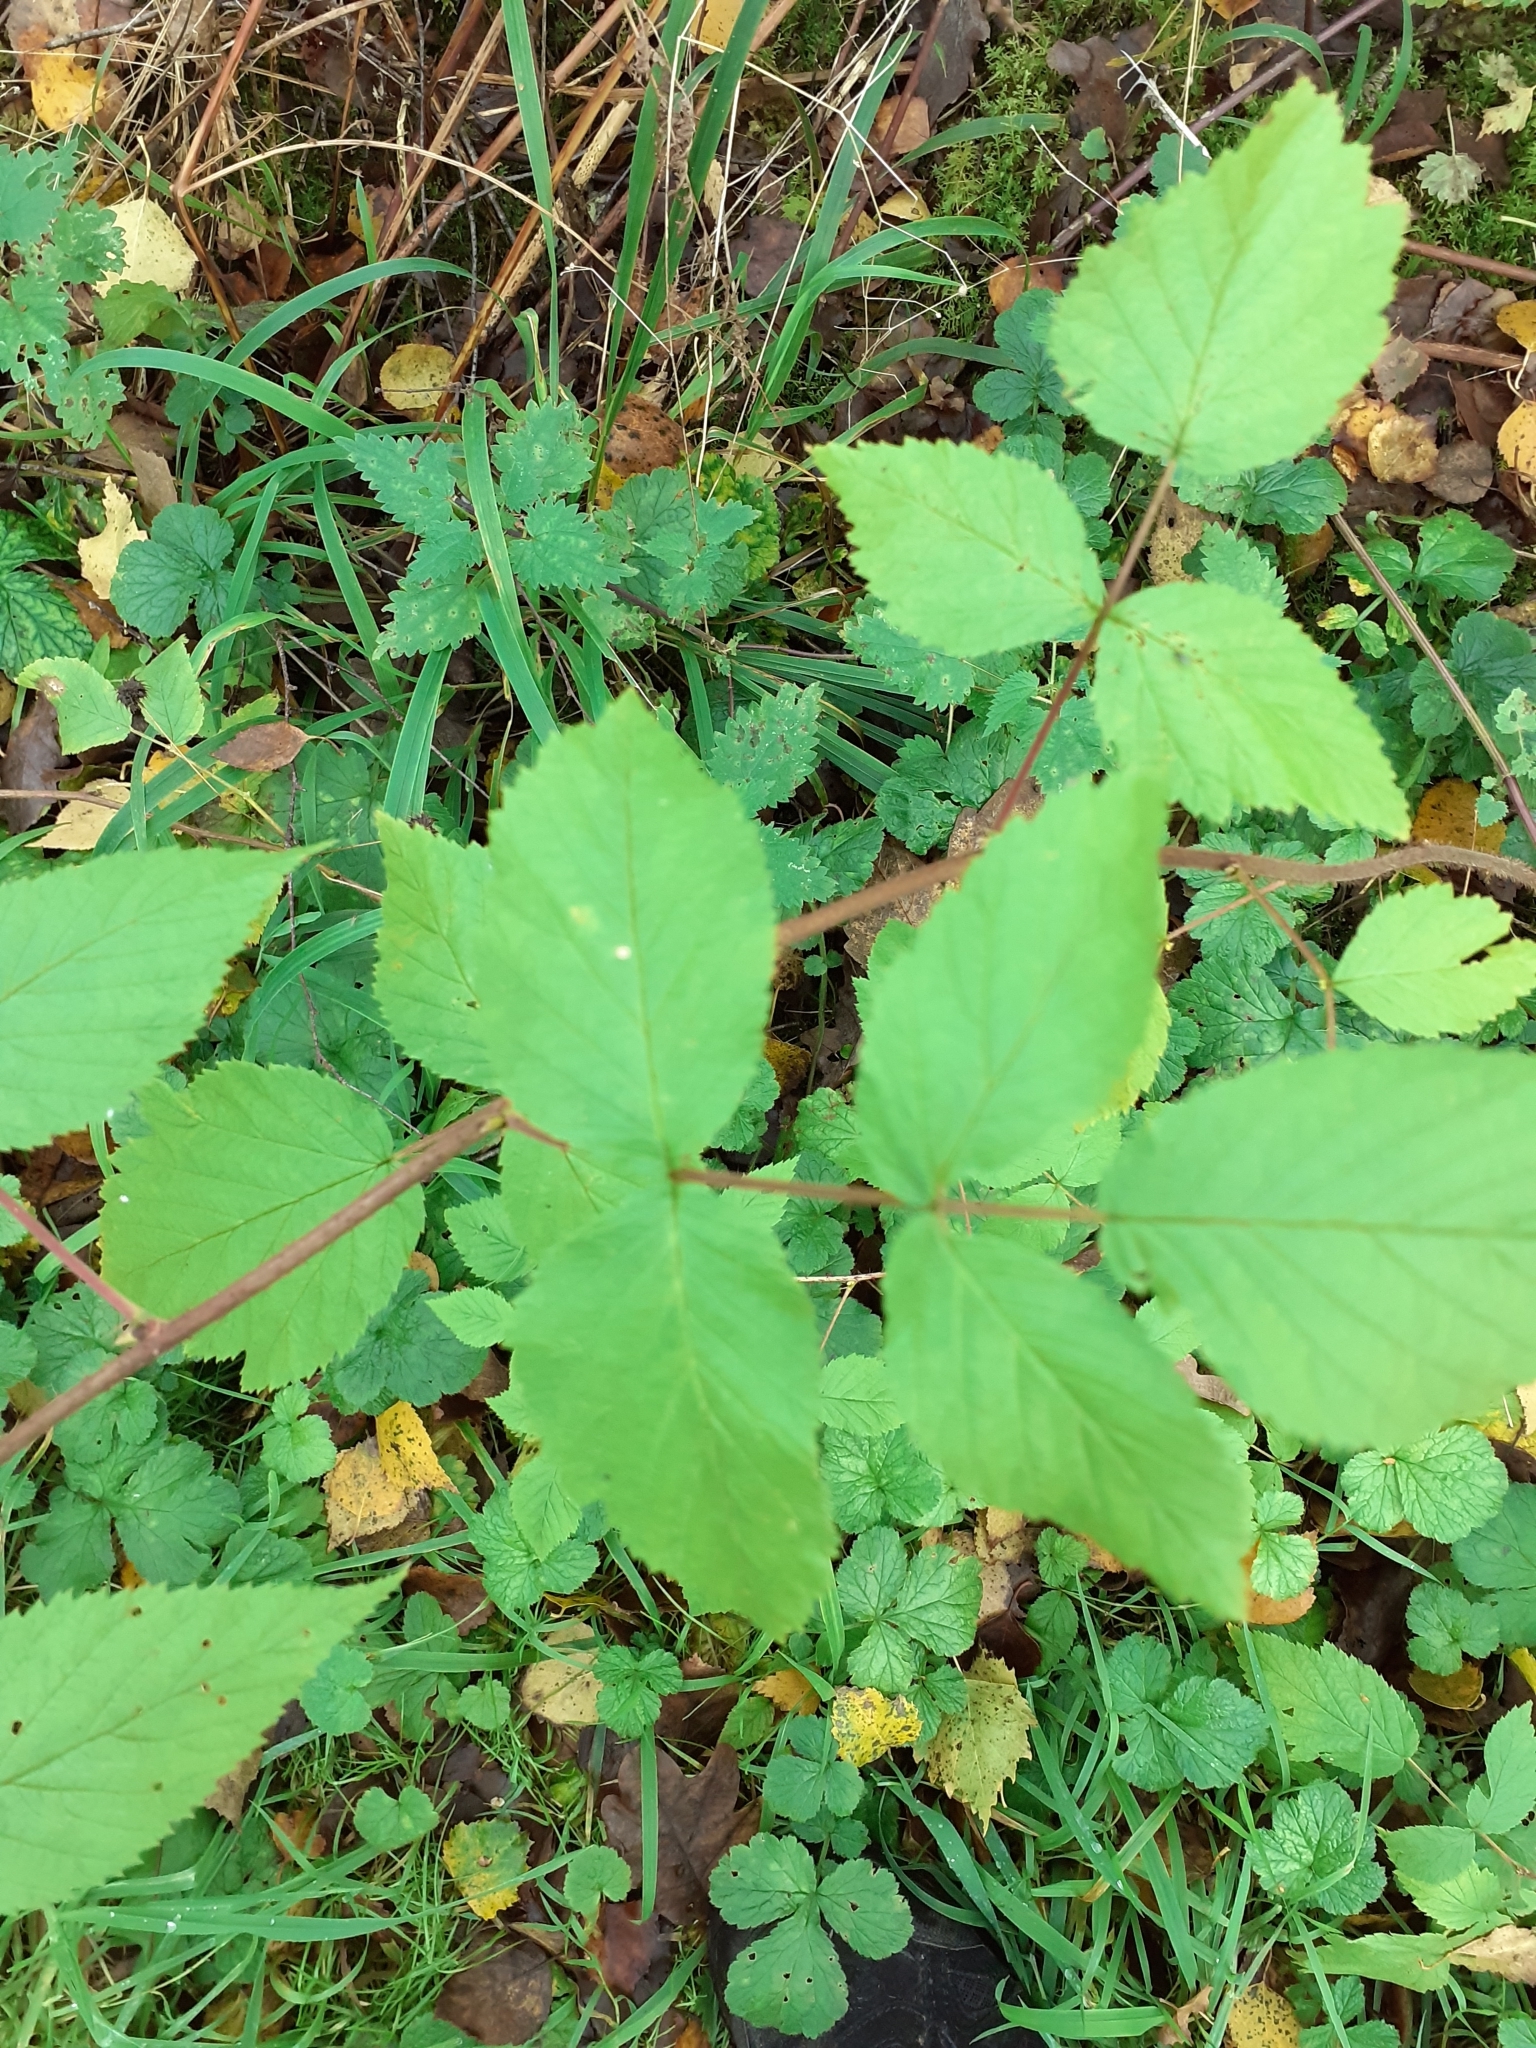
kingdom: Plantae
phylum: Tracheophyta
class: Magnoliopsida
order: Rosales
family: Rosaceae
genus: Rubus
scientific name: Rubus idaeus
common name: Raspberry
